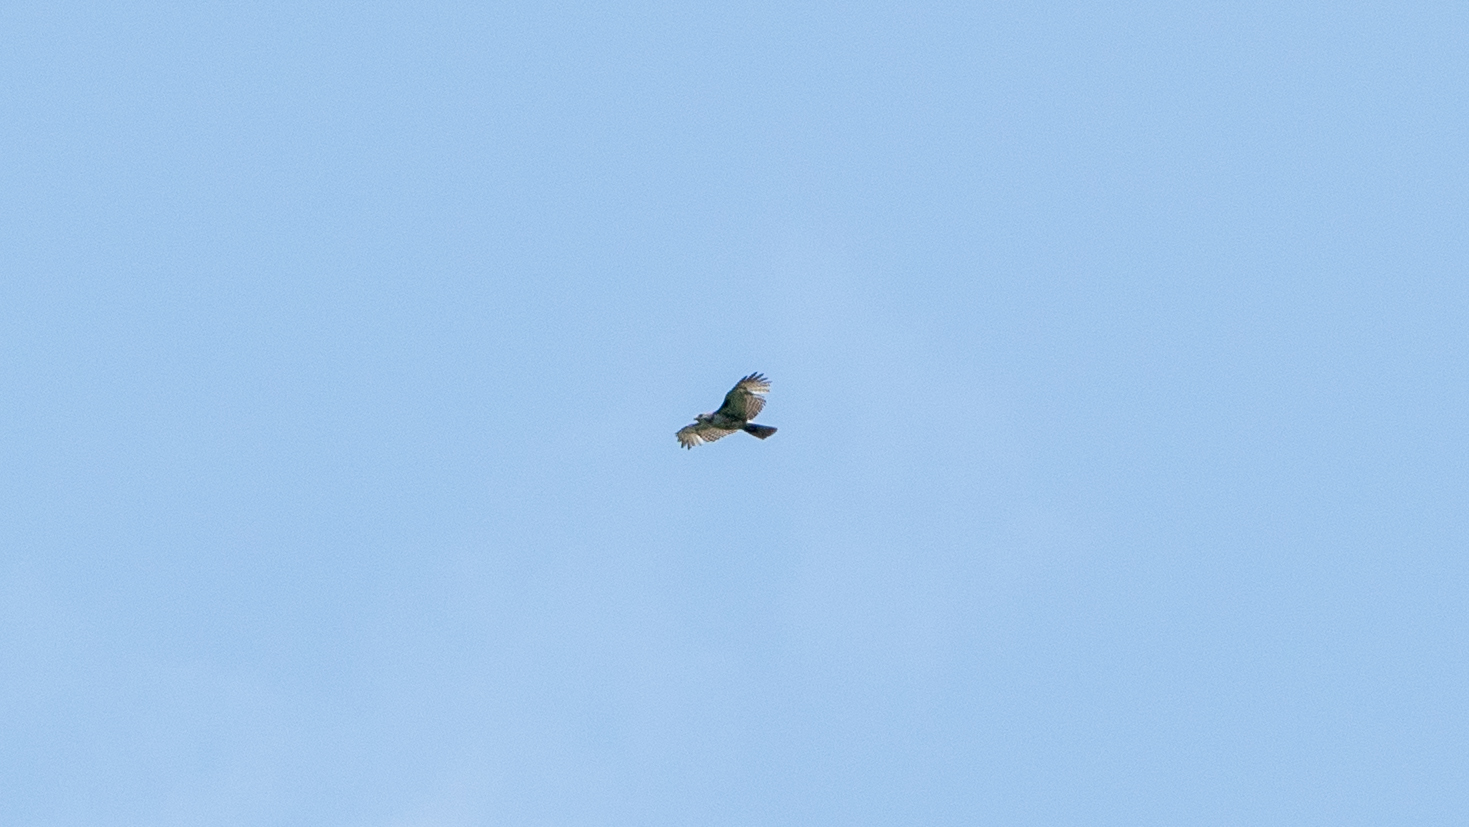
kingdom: Animalia
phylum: Chordata
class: Aves
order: Accipitriformes
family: Accipitridae
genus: Buteo
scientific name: Buteo jamaicensis
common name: Red-tailed hawk
